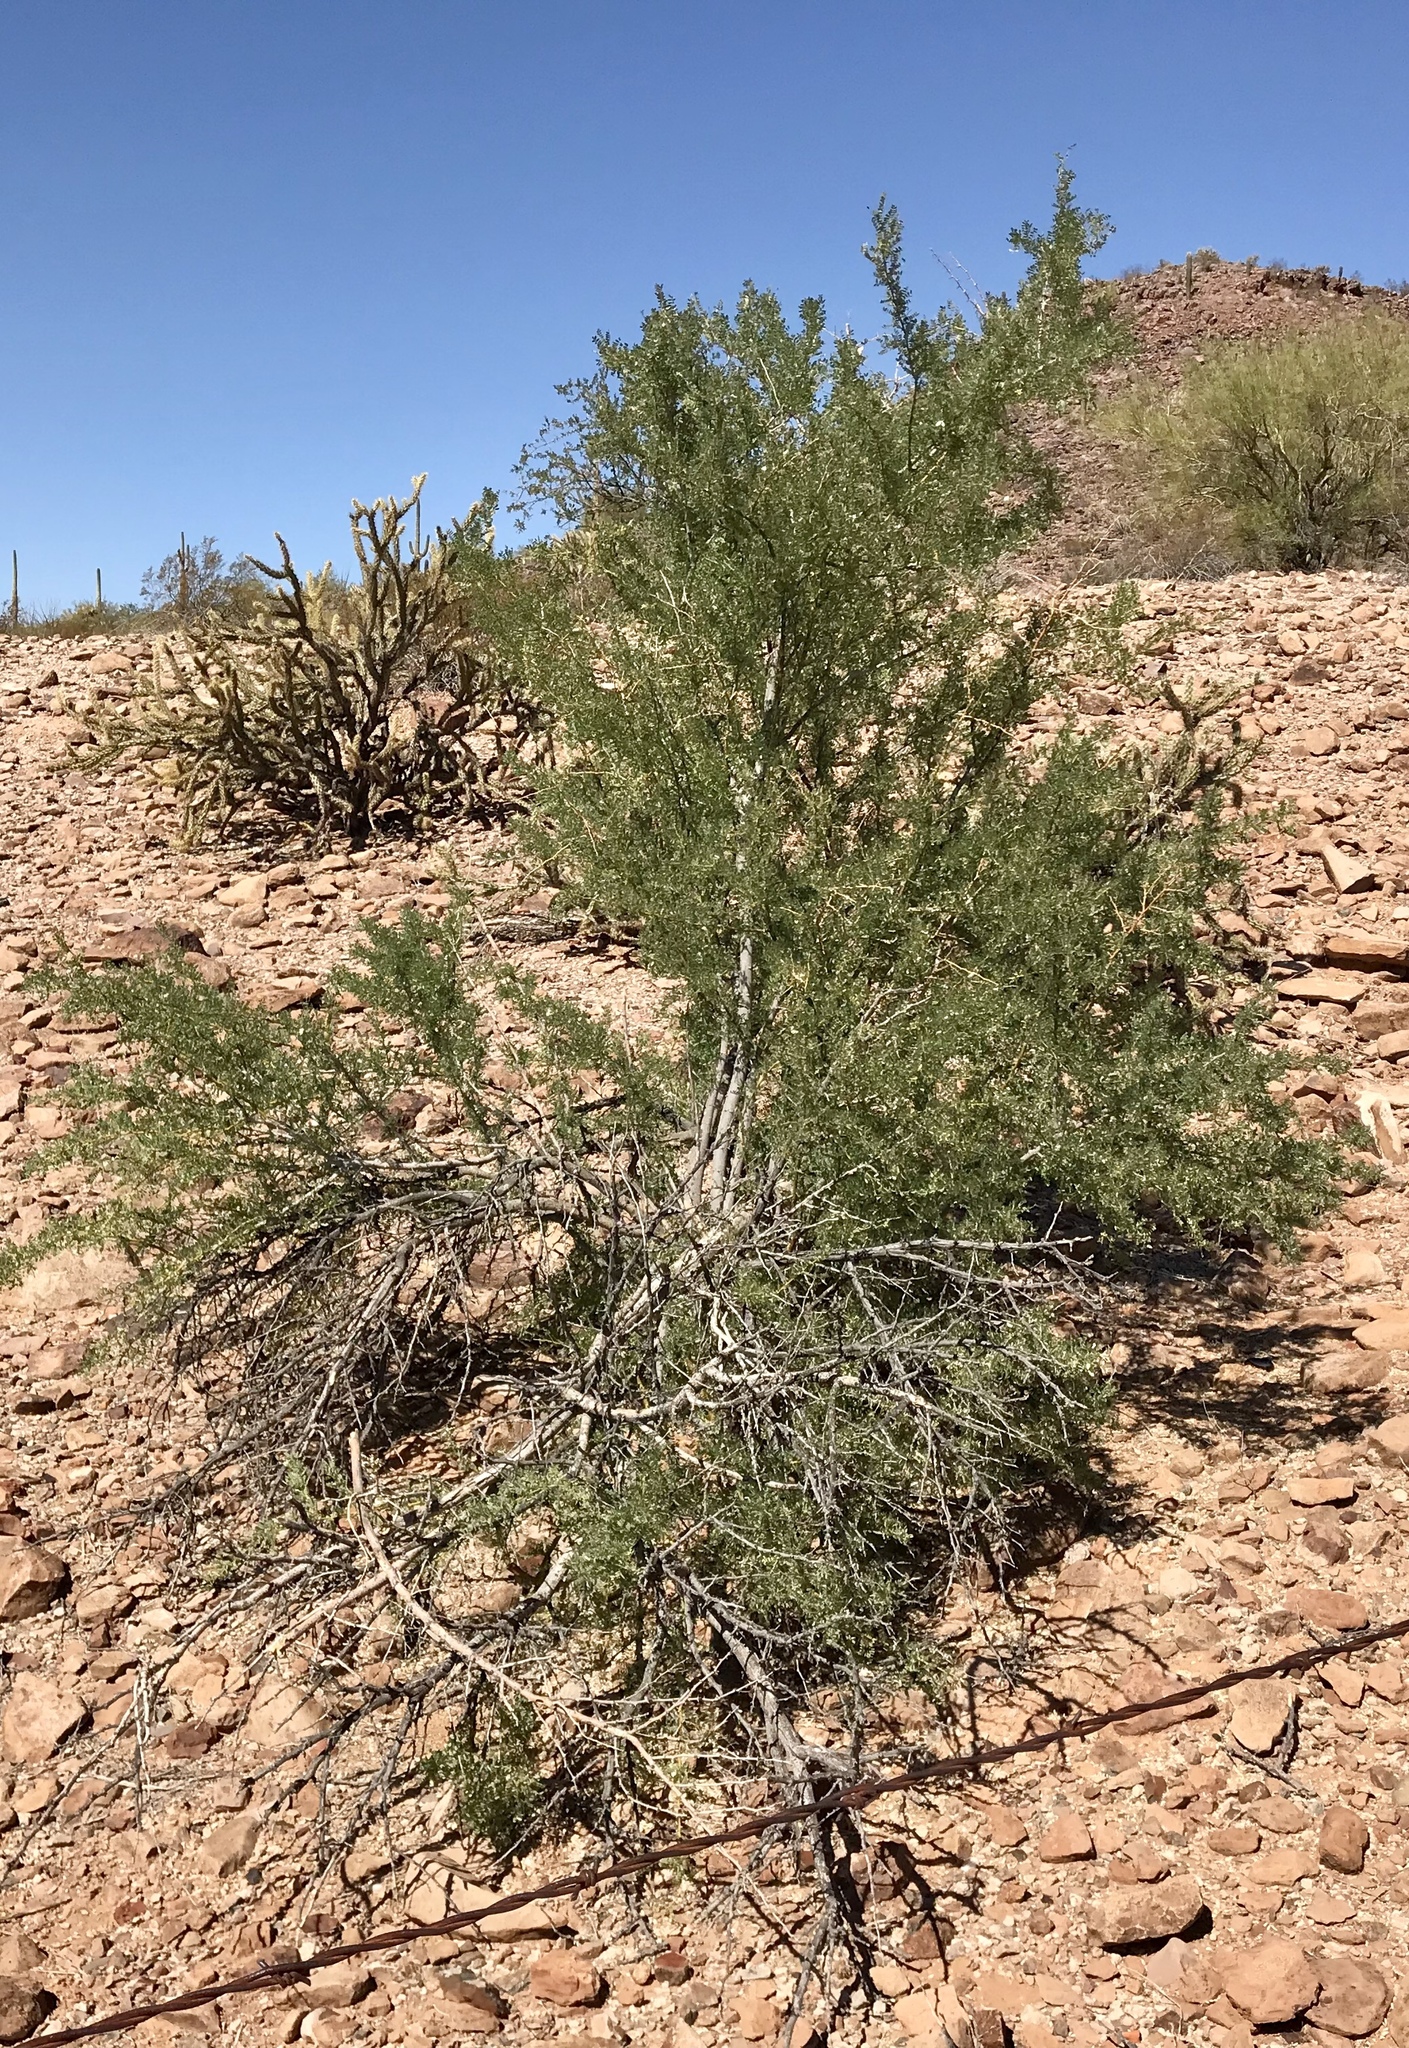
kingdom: Plantae
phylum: Tracheophyta
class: Magnoliopsida
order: Zygophyllales
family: Zygophyllaceae
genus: Larrea
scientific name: Larrea tridentata
